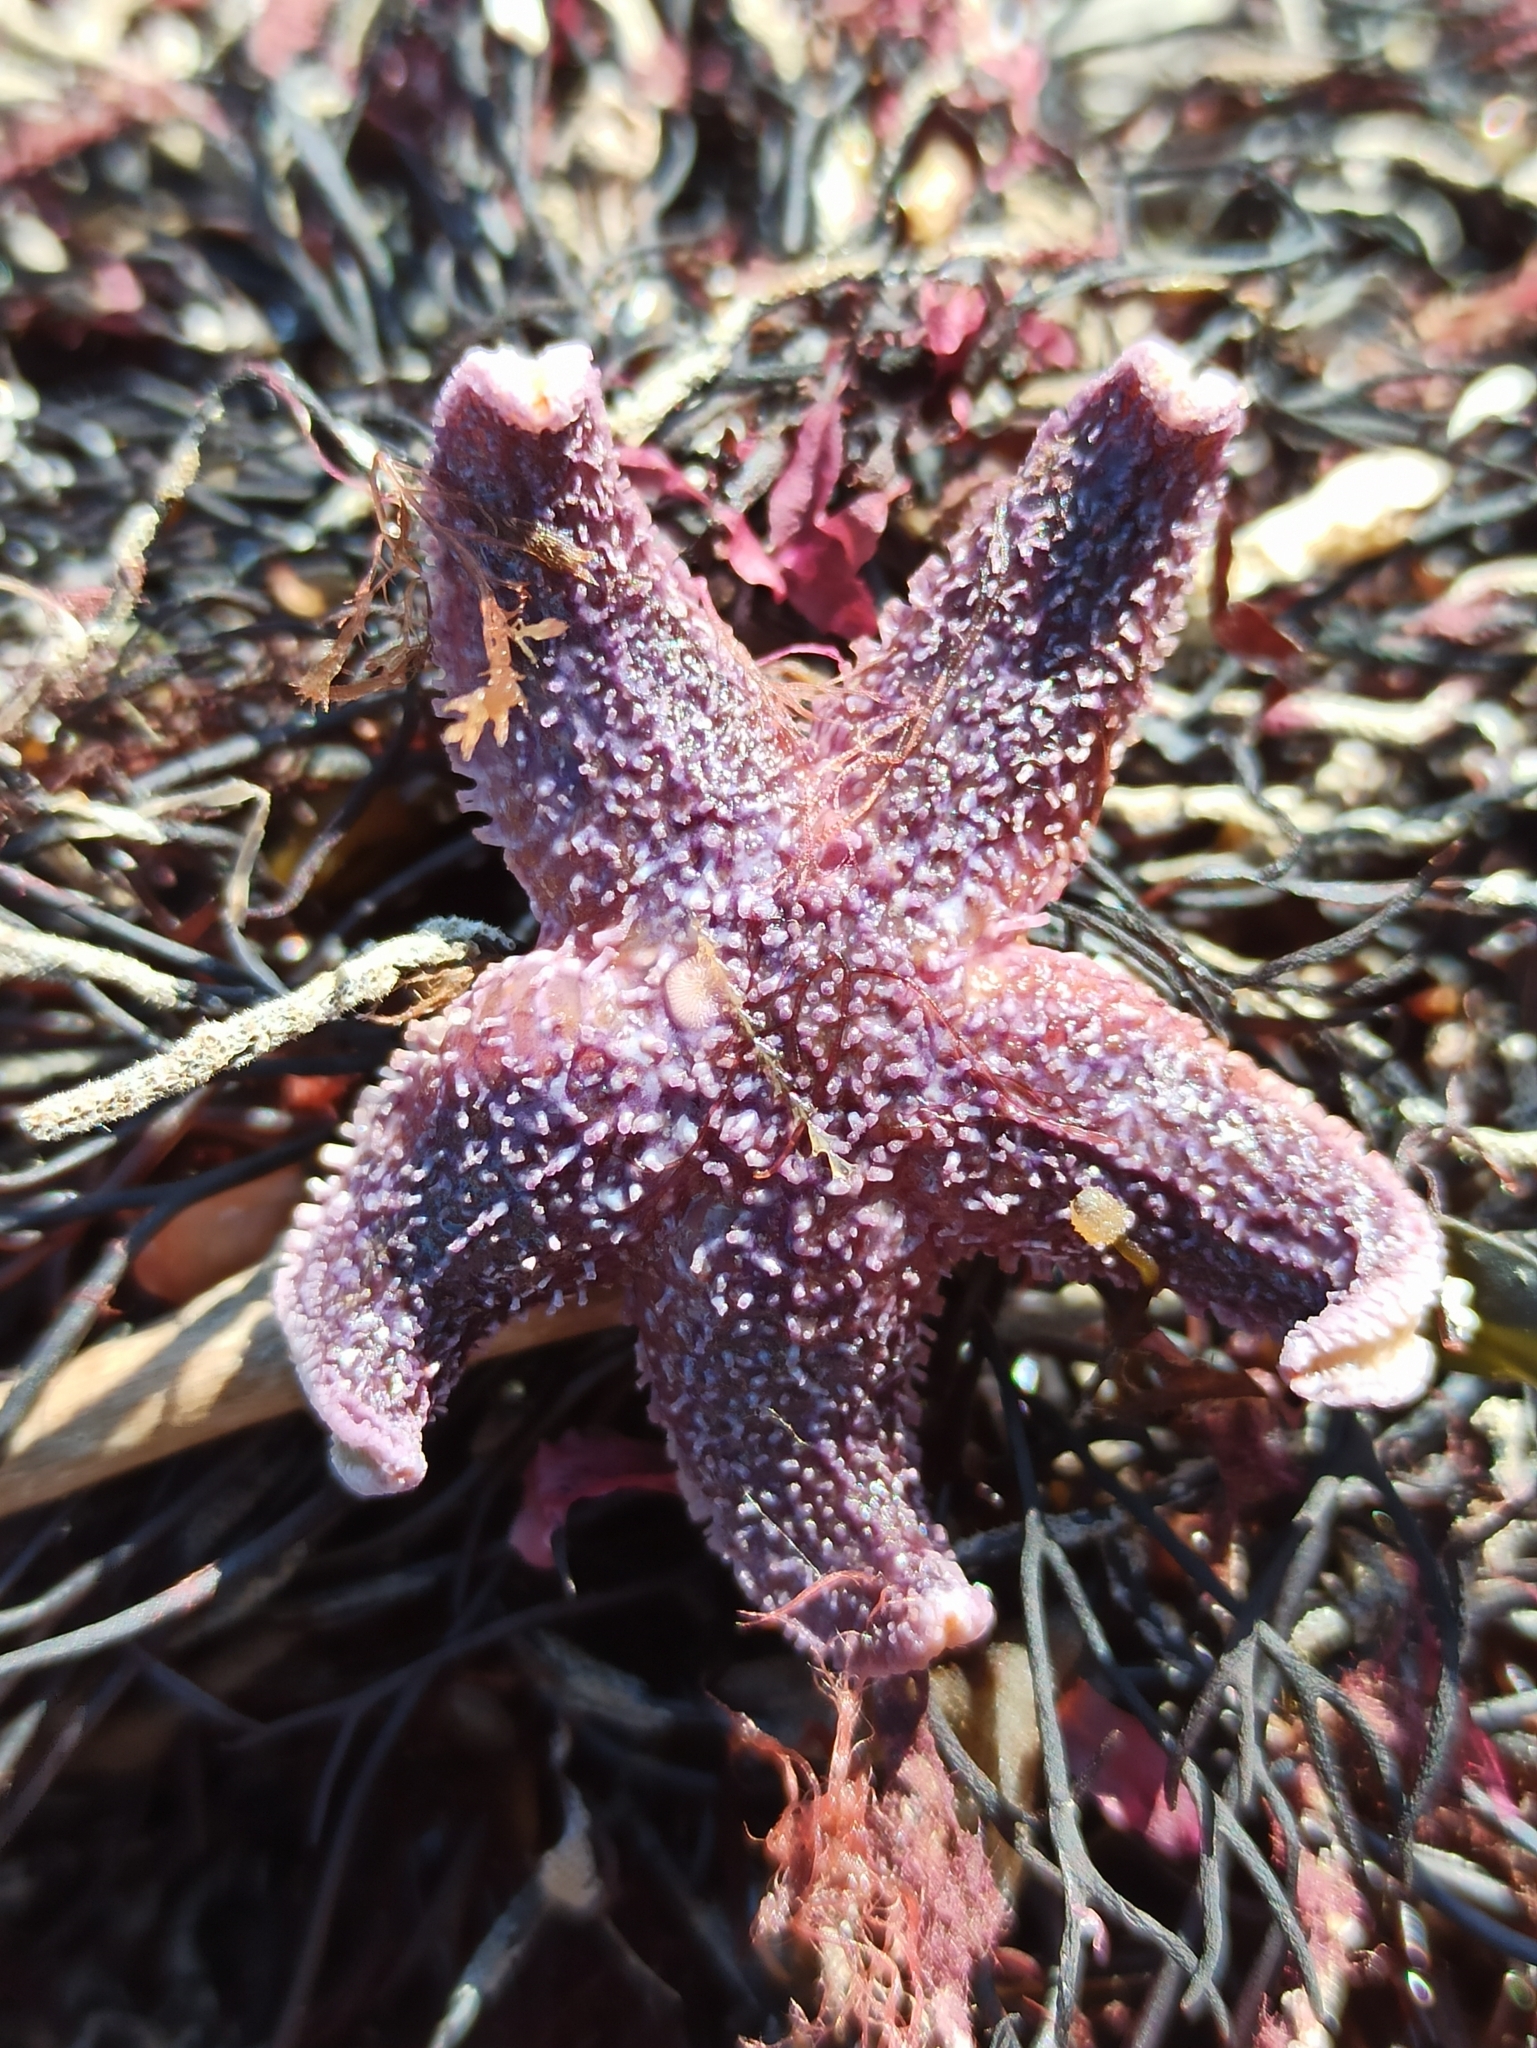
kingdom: Animalia
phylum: Echinodermata
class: Asteroidea
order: Forcipulatida
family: Asteriidae
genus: Asterias
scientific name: Asterias rubens
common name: Common starfish
